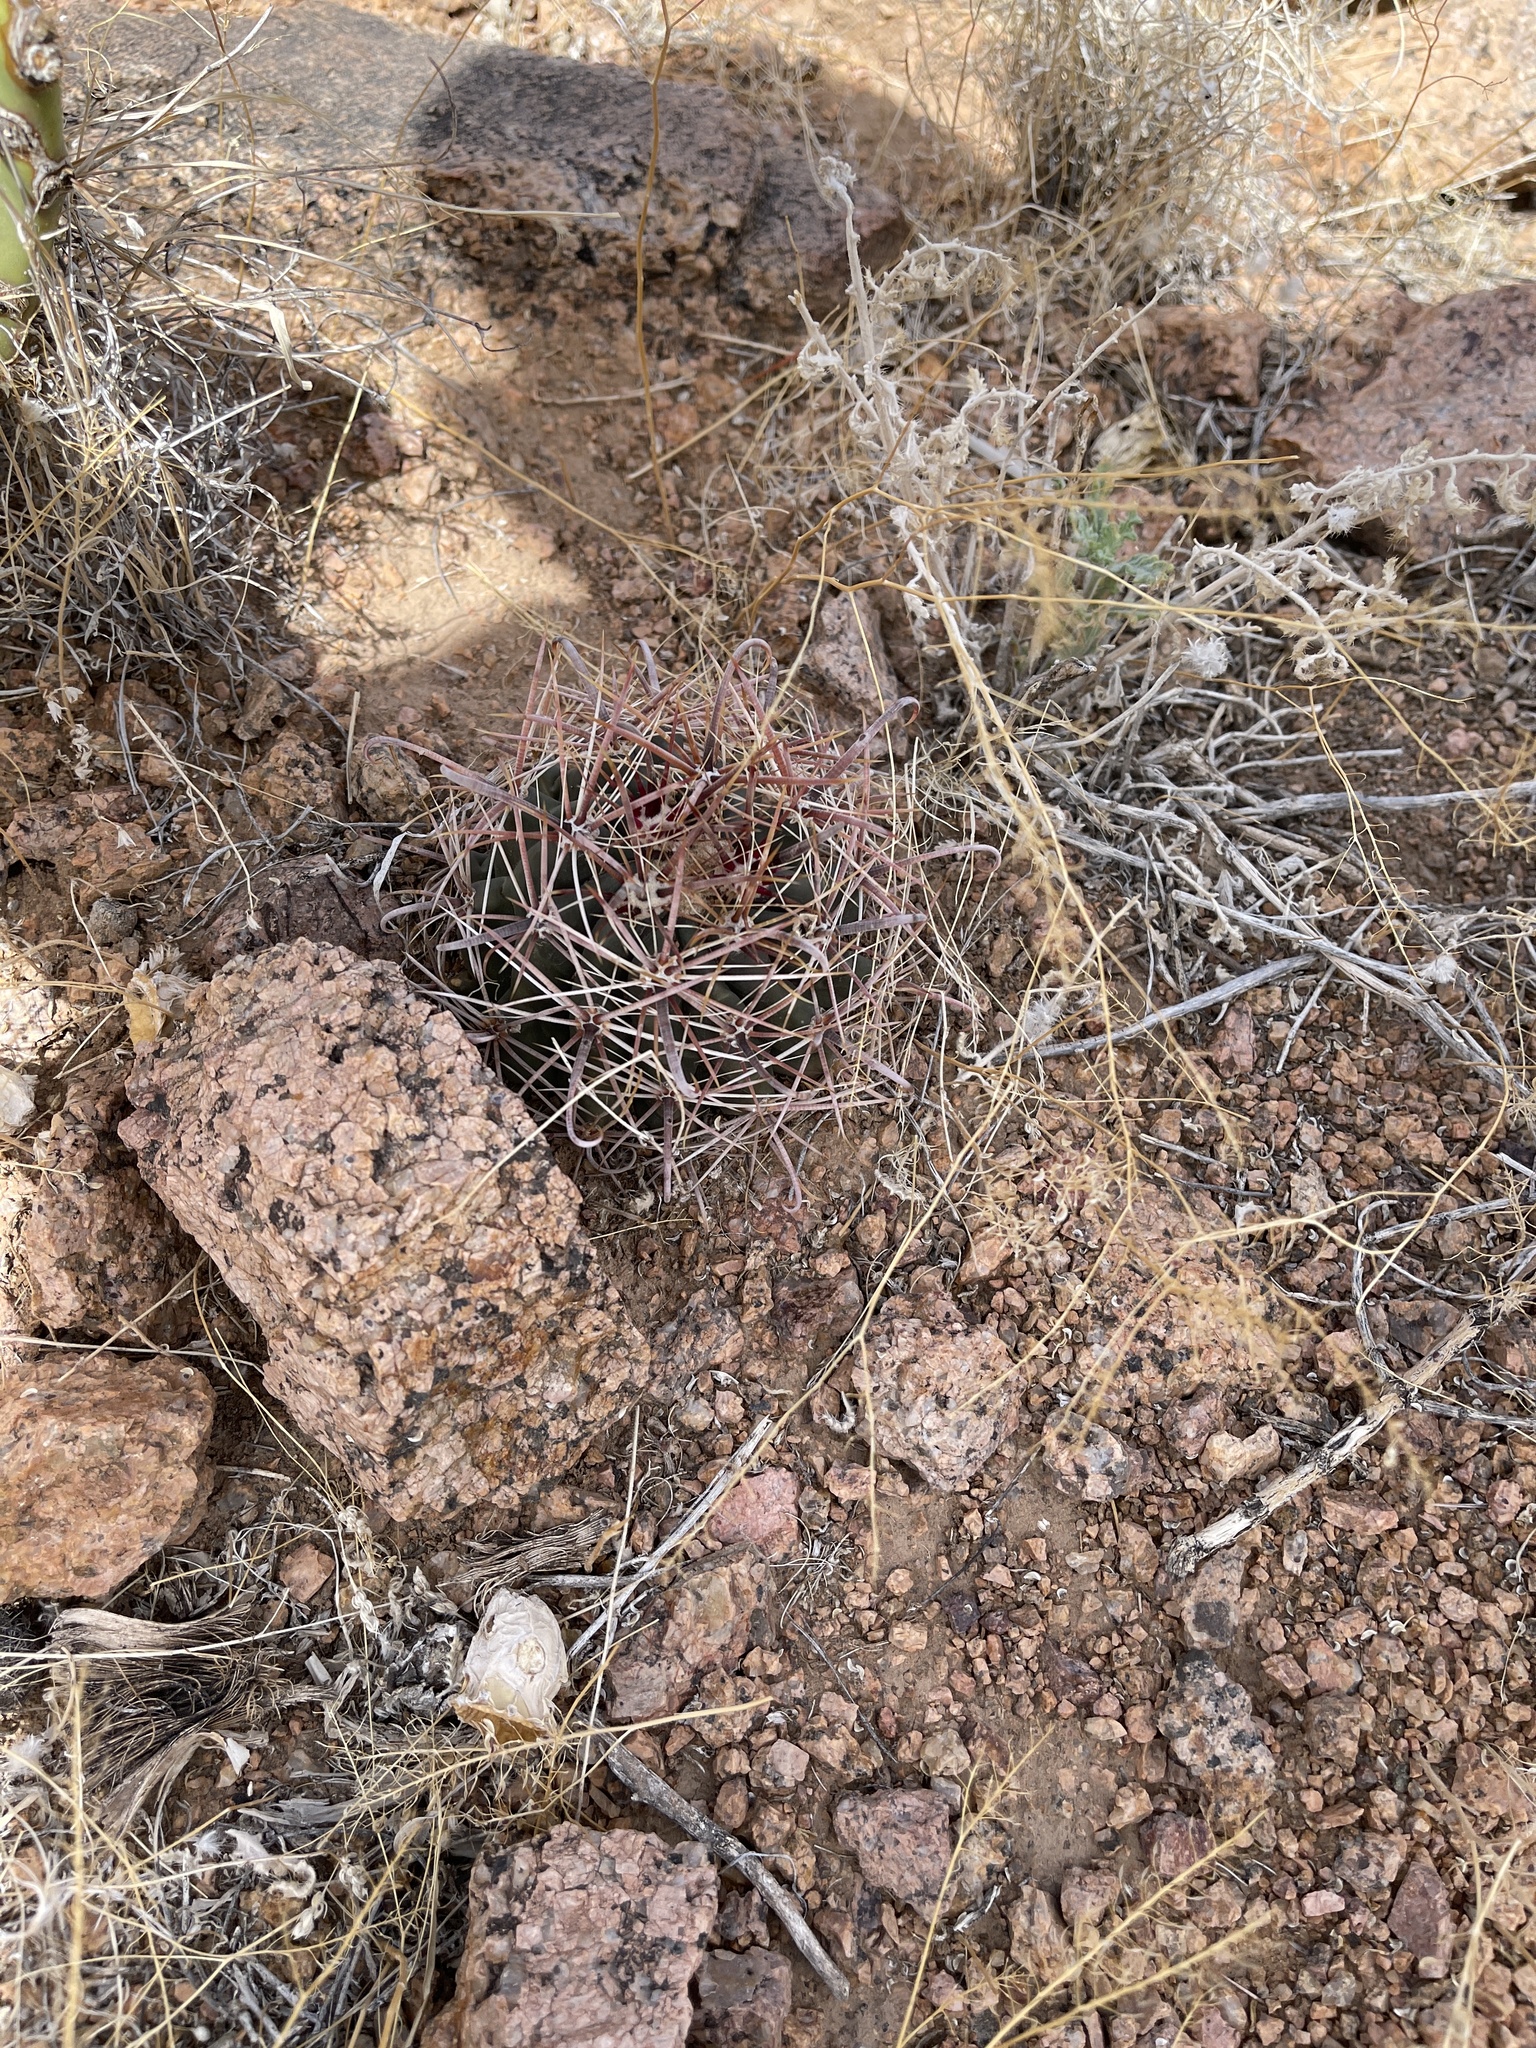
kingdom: Plantae
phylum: Tracheophyta
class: Magnoliopsida
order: Caryophyllales
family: Cactaceae
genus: Ferocactus
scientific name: Ferocactus wislizeni
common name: Candy barrel cactus
